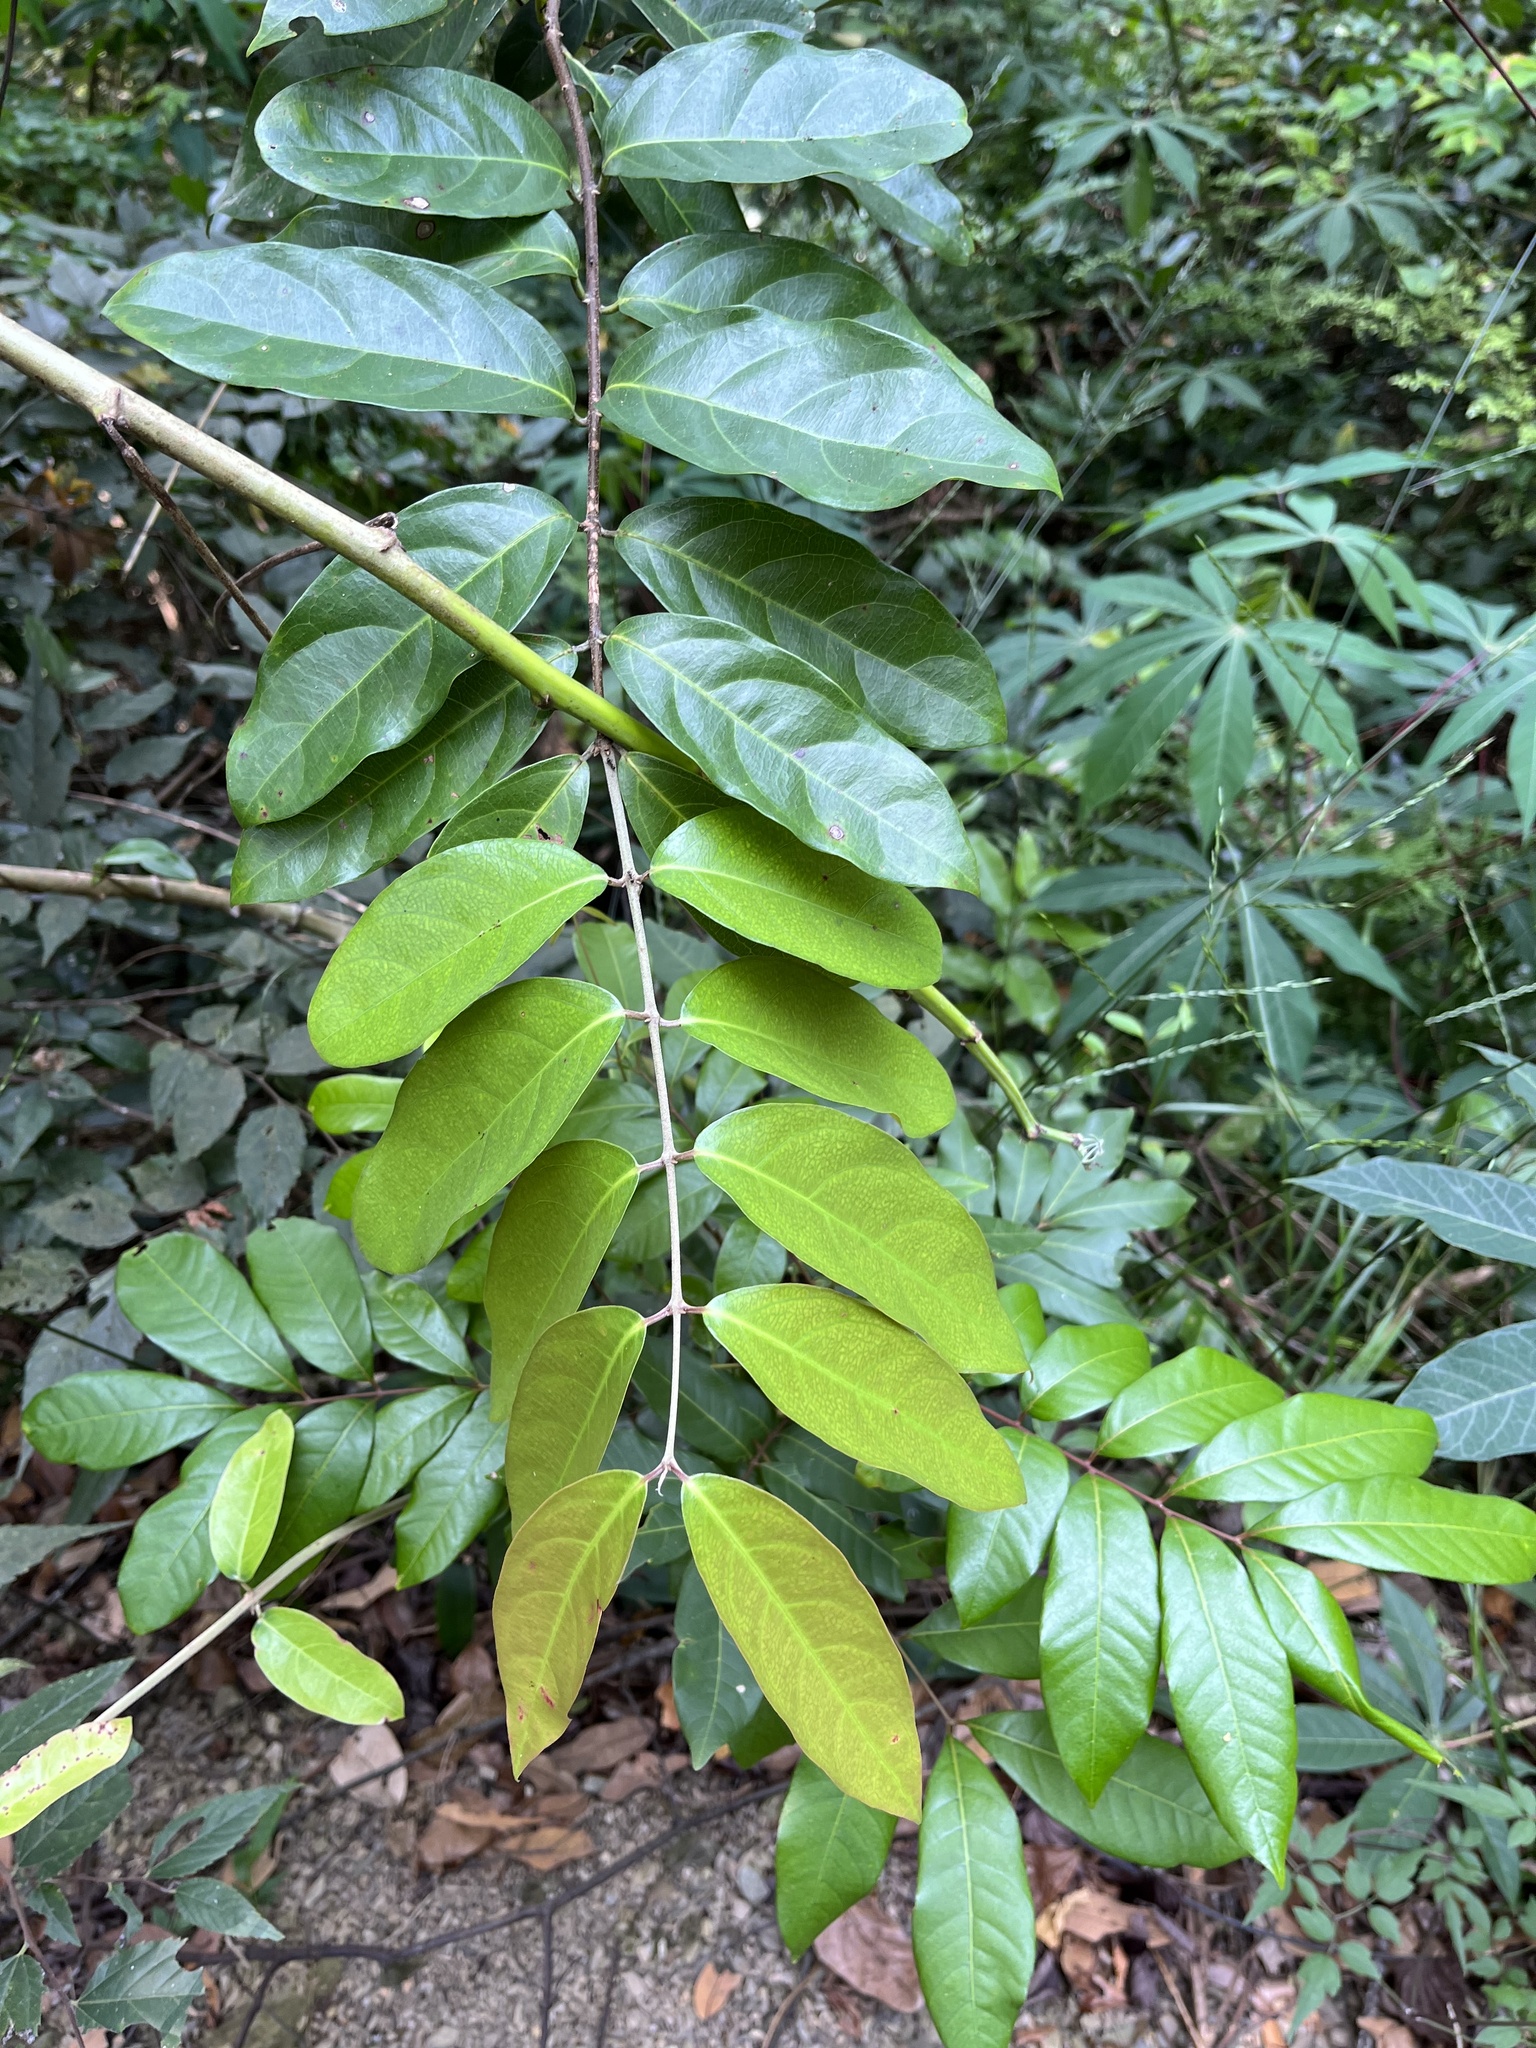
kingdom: Plantae
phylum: Tracheophyta
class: Magnoliopsida
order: Malpighiales
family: Malpighiaceae
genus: Hiptage
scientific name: Hiptage benghalensis
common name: Hiptage
